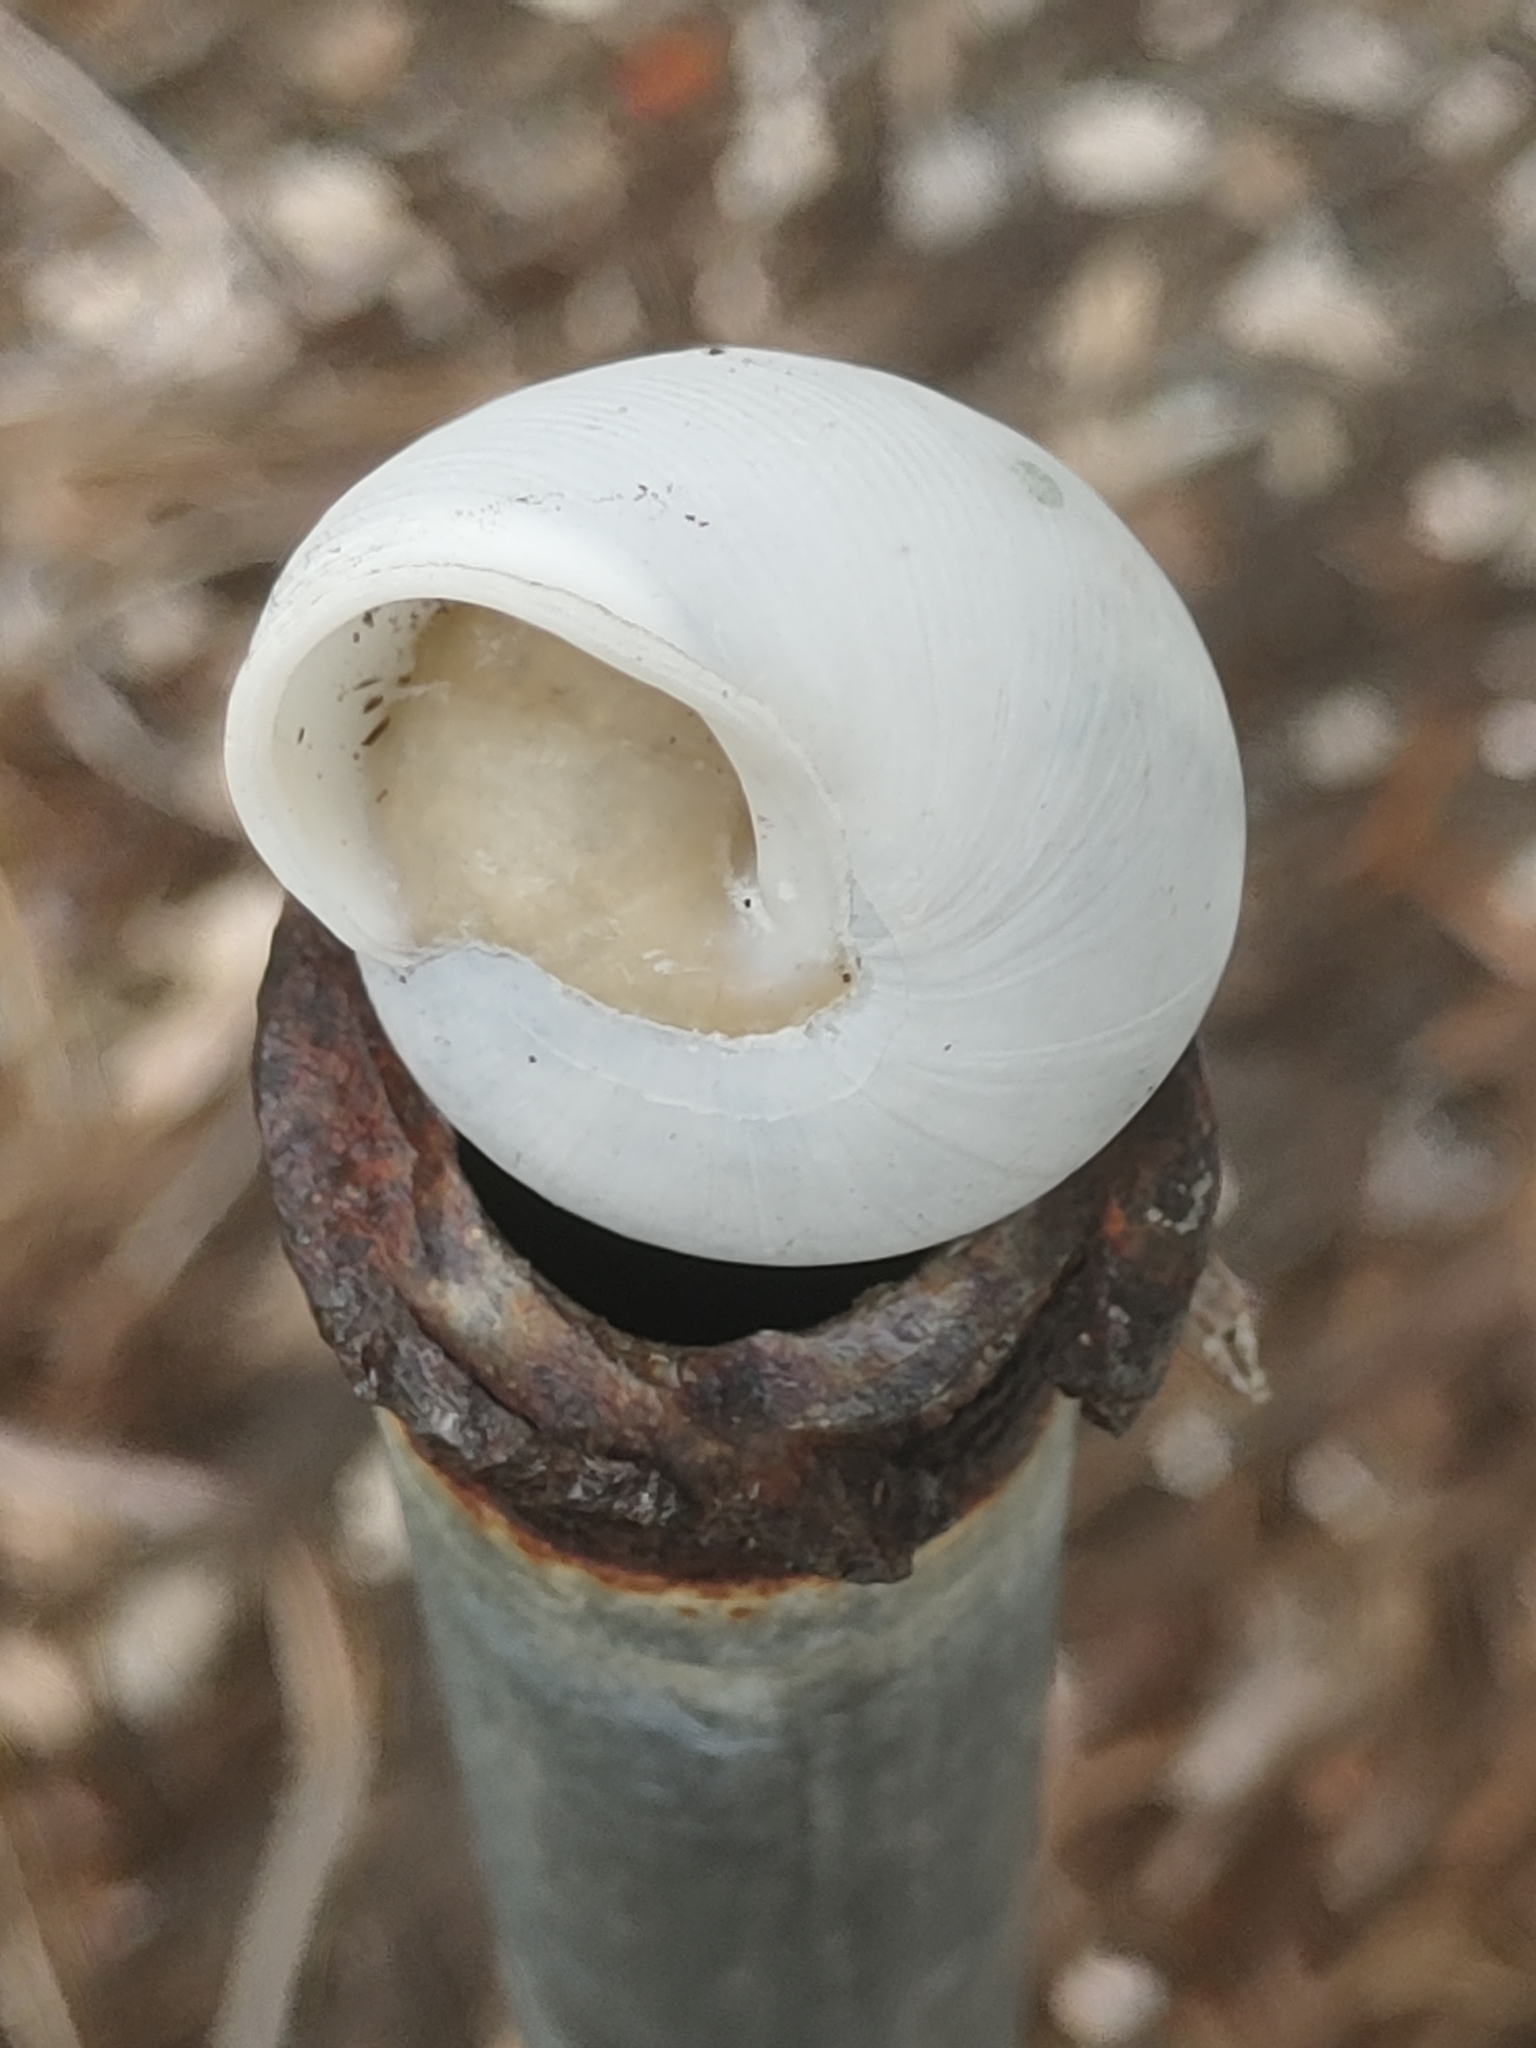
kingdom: Animalia
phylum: Mollusca
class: Gastropoda
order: Stylommatophora
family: Zachrysiidae
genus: Zachrysia
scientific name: Zachrysia provisoria
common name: Garden zachrysia
